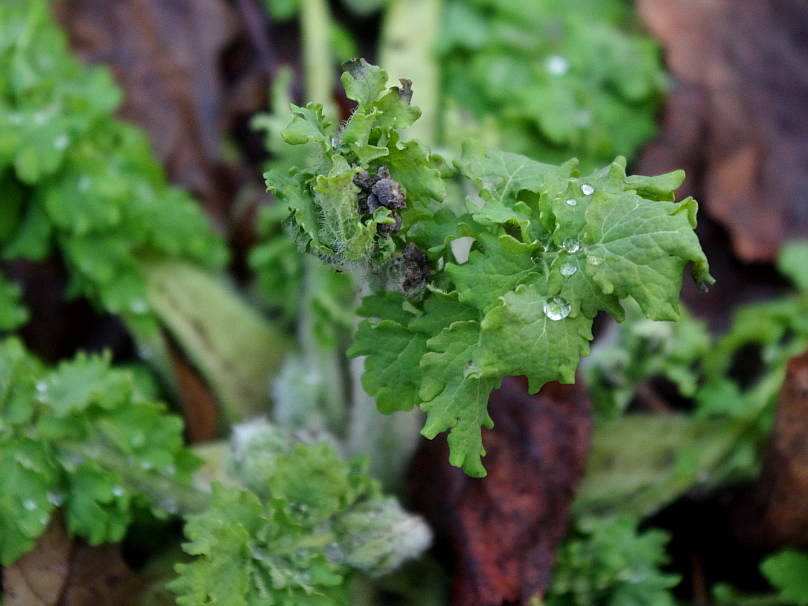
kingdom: Plantae
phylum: Tracheophyta
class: Magnoliopsida
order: Ranunculales
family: Papaveraceae
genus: Chelidonium
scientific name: Chelidonium majus
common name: Greater celandine
